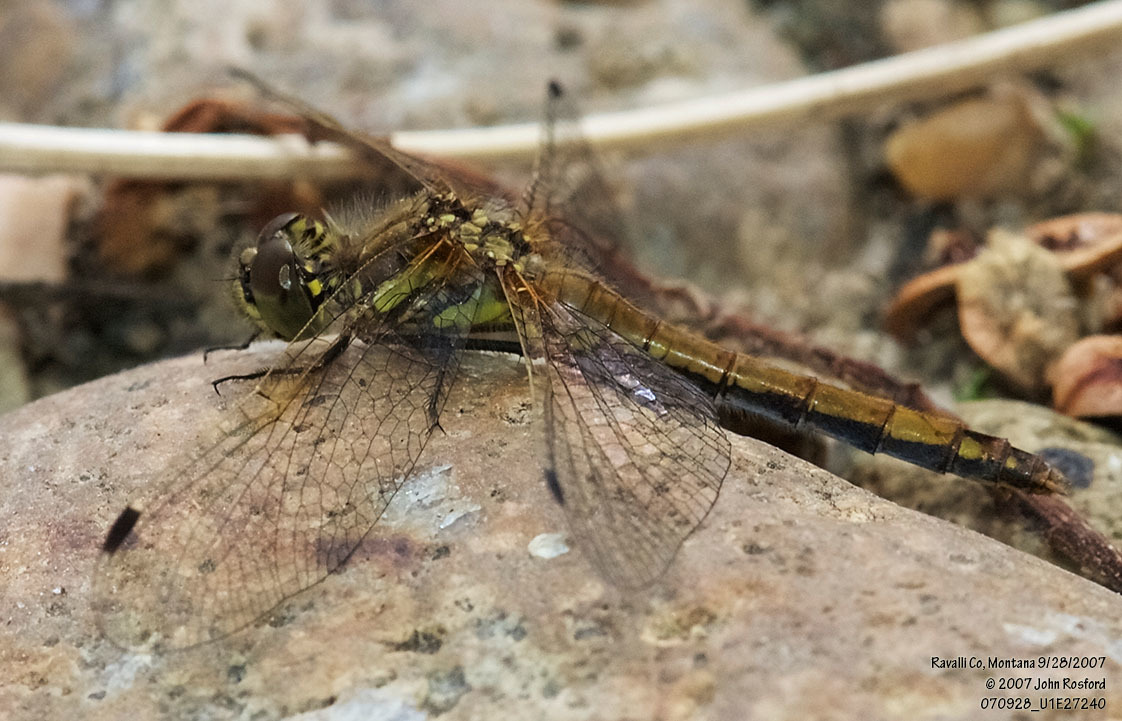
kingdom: Animalia
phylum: Arthropoda
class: Insecta
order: Odonata
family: Libellulidae
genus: Sympetrum
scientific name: Sympetrum danae
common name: Black darter
